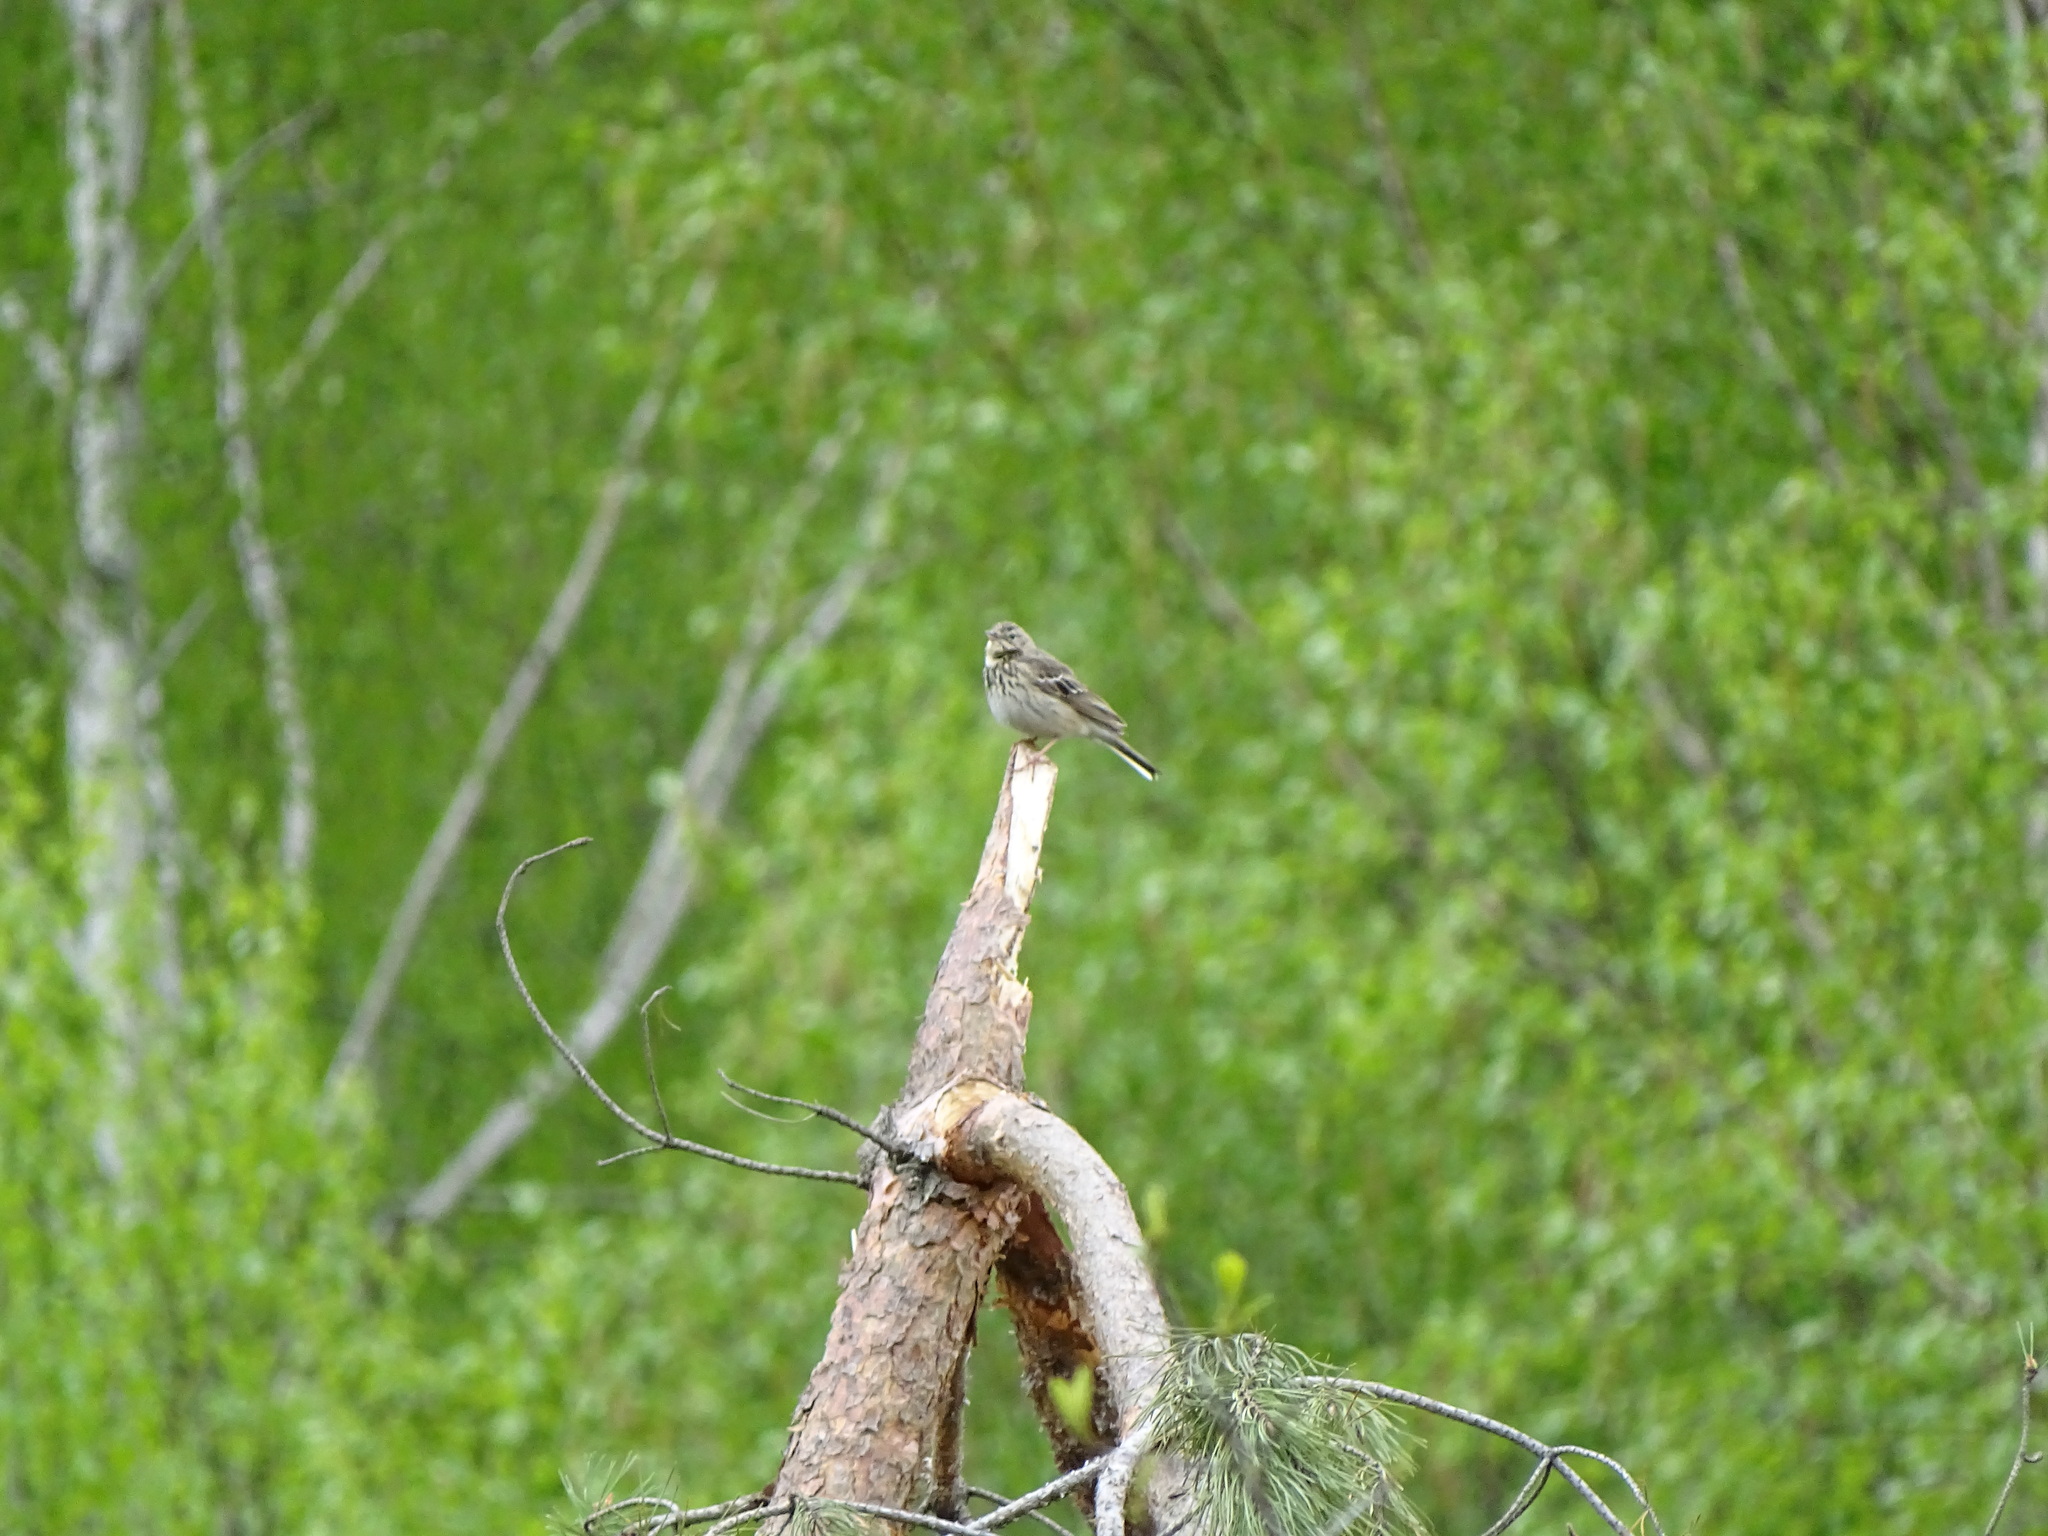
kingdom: Animalia
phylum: Chordata
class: Aves
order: Passeriformes
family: Motacillidae
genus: Anthus
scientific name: Anthus trivialis
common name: Tree pipit
